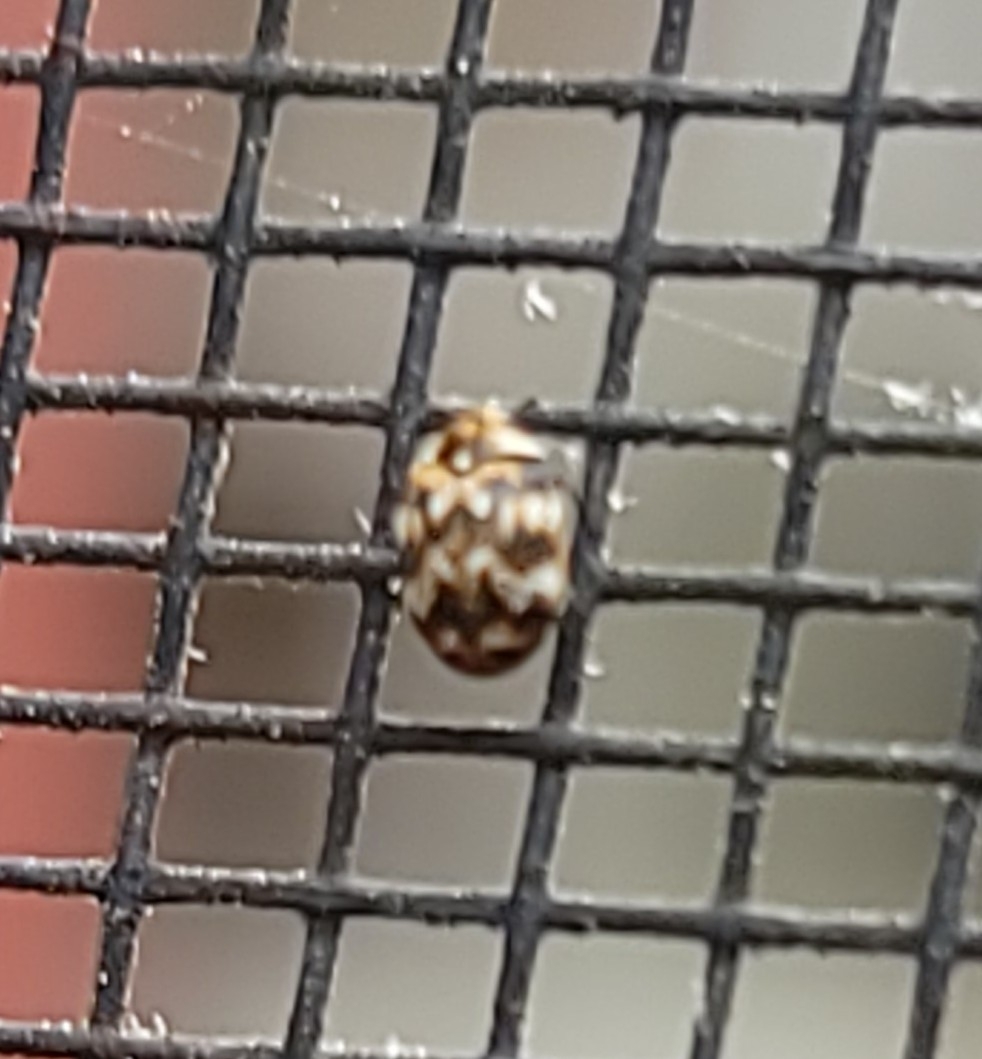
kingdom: Animalia
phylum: Arthropoda
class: Insecta
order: Coleoptera
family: Dermestidae
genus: Anthrenus
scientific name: Anthrenus verbasci
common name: Varied carpet beetle
